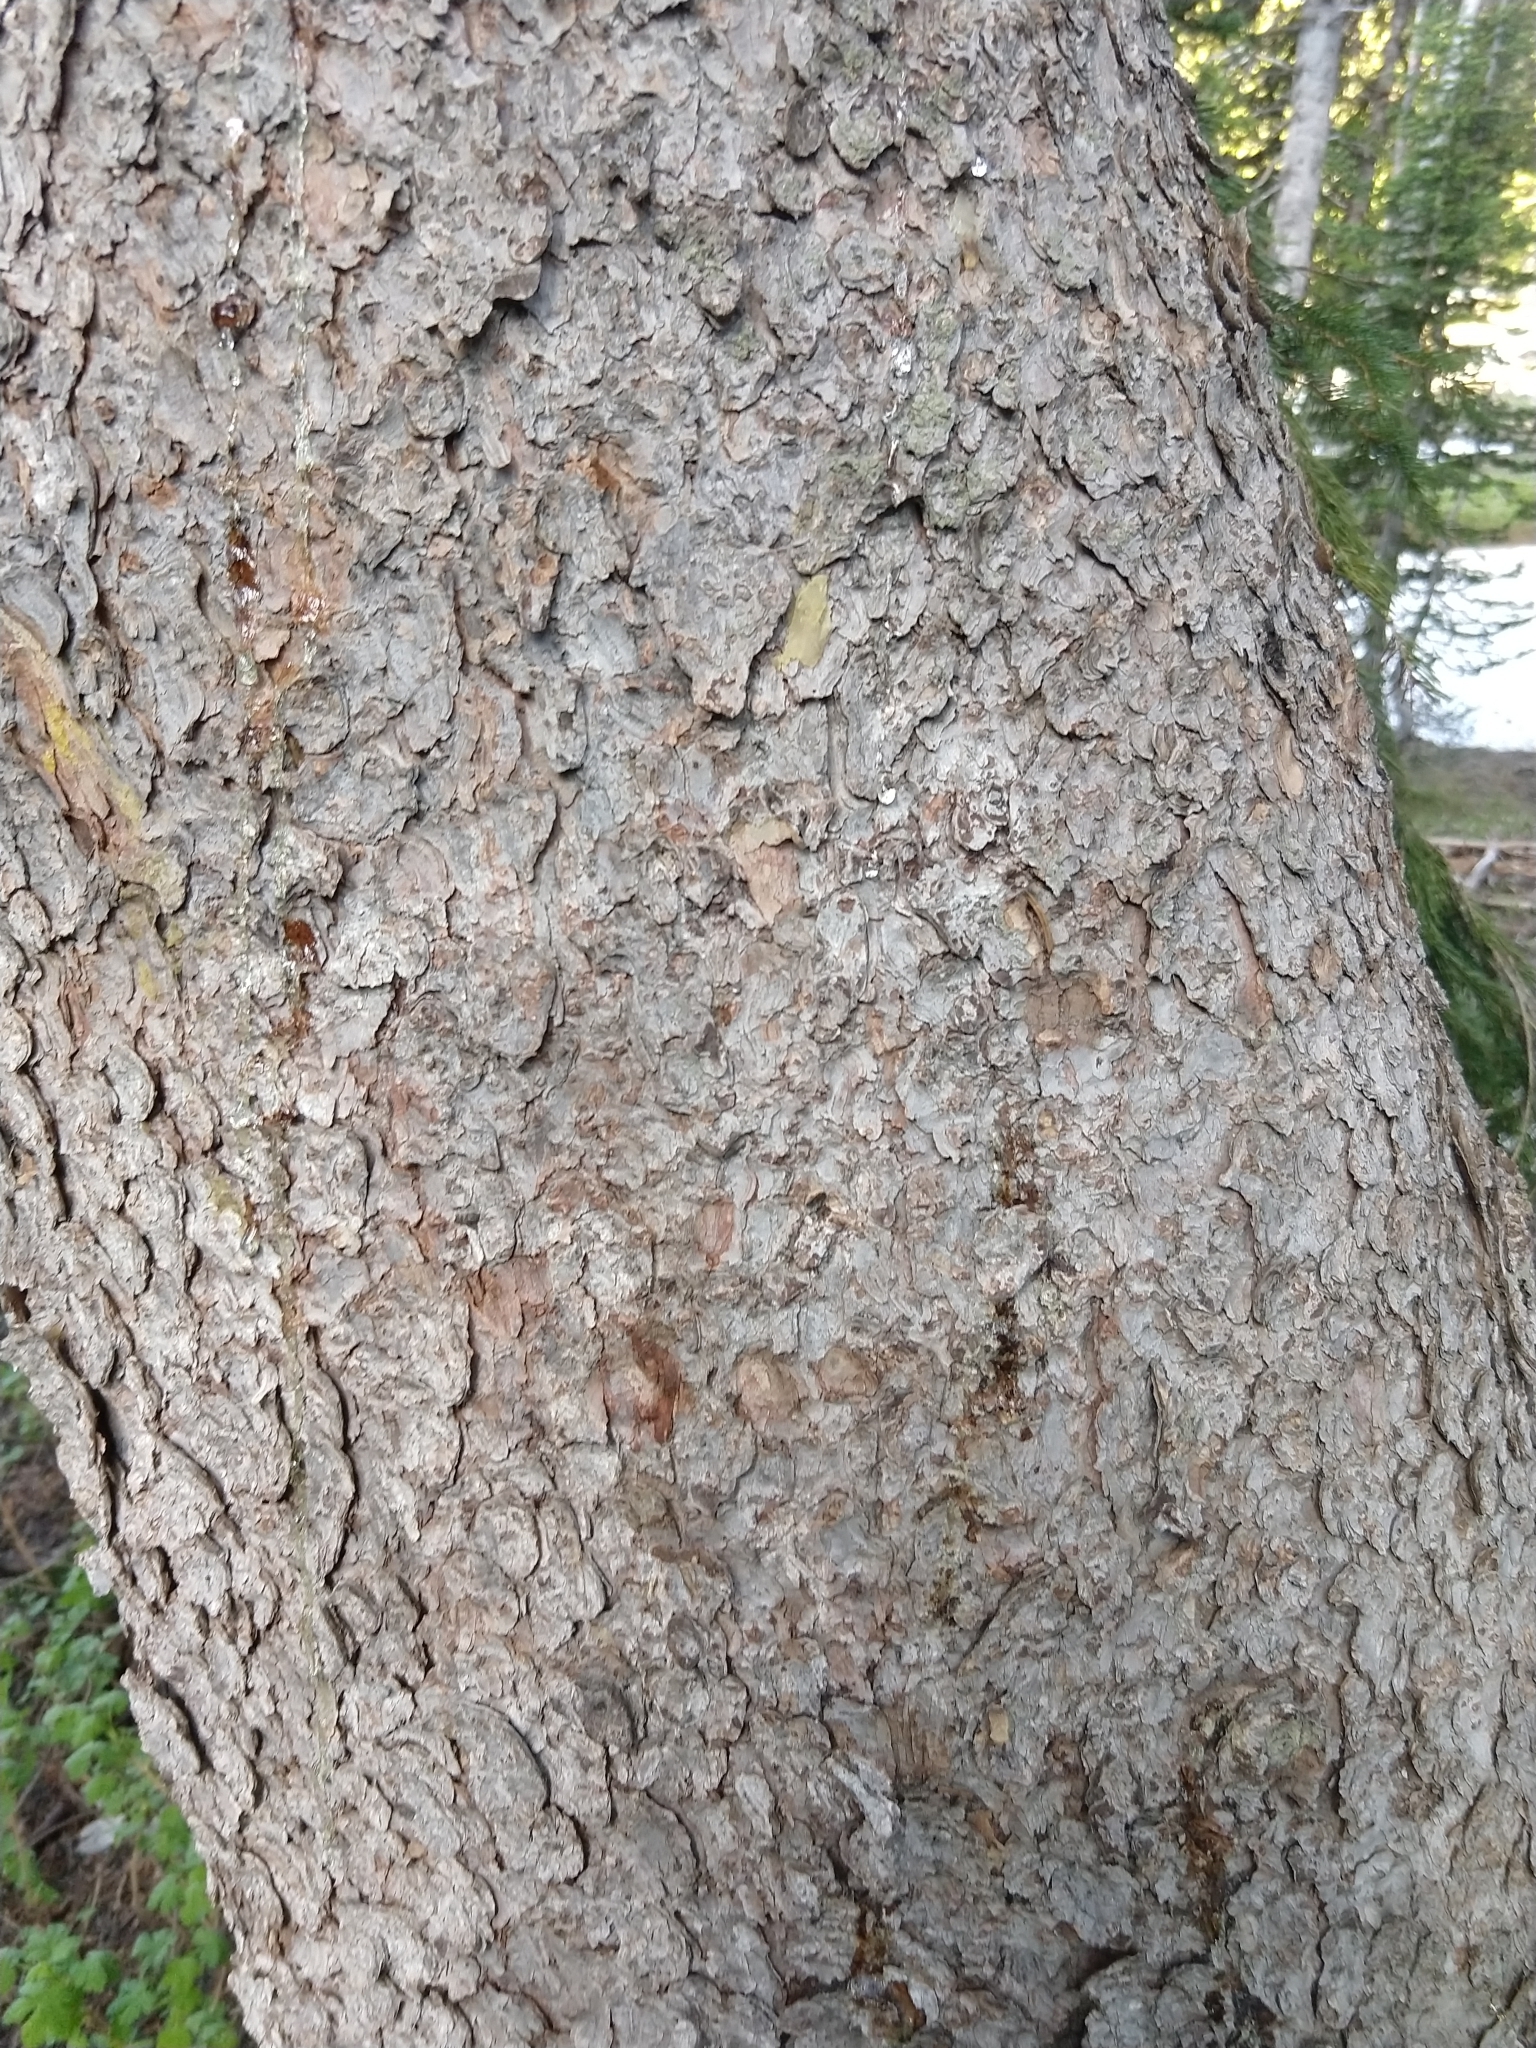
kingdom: Plantae
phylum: Tracheophyta
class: Pinopsida
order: Pinales
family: Pinaceae
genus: Picea
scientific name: Picea engelmannii
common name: Engelmann spruce
